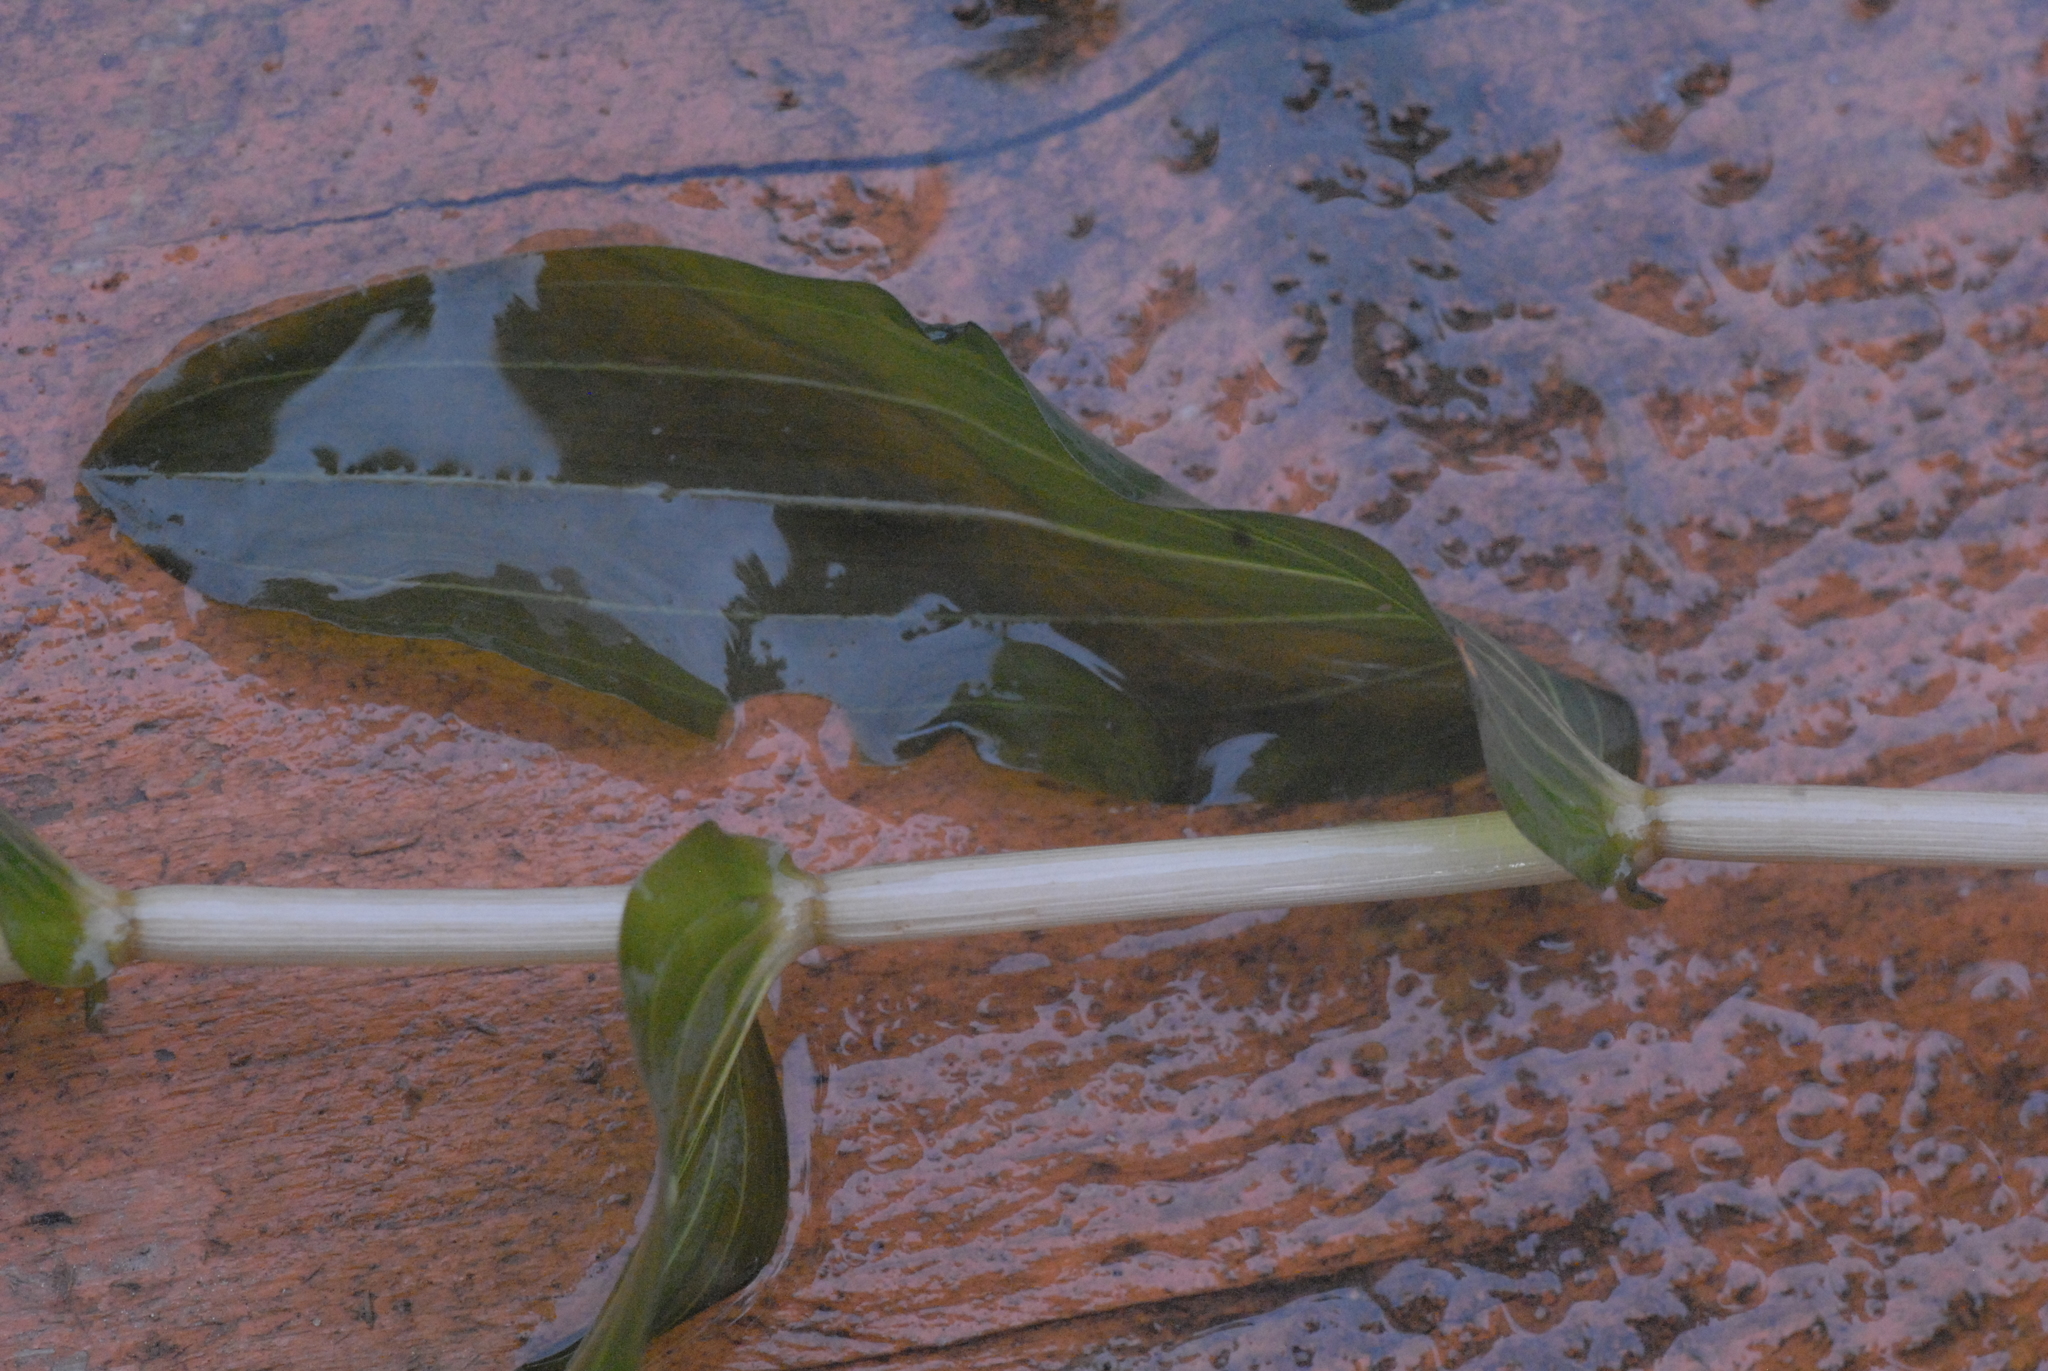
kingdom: Plantae
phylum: Tracheophyta
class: Liliopsida
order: Alismatales
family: Potamogetonaceae
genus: Potamogeton
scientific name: Potamogeton perfoliatus
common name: Perfoliate pondweed
